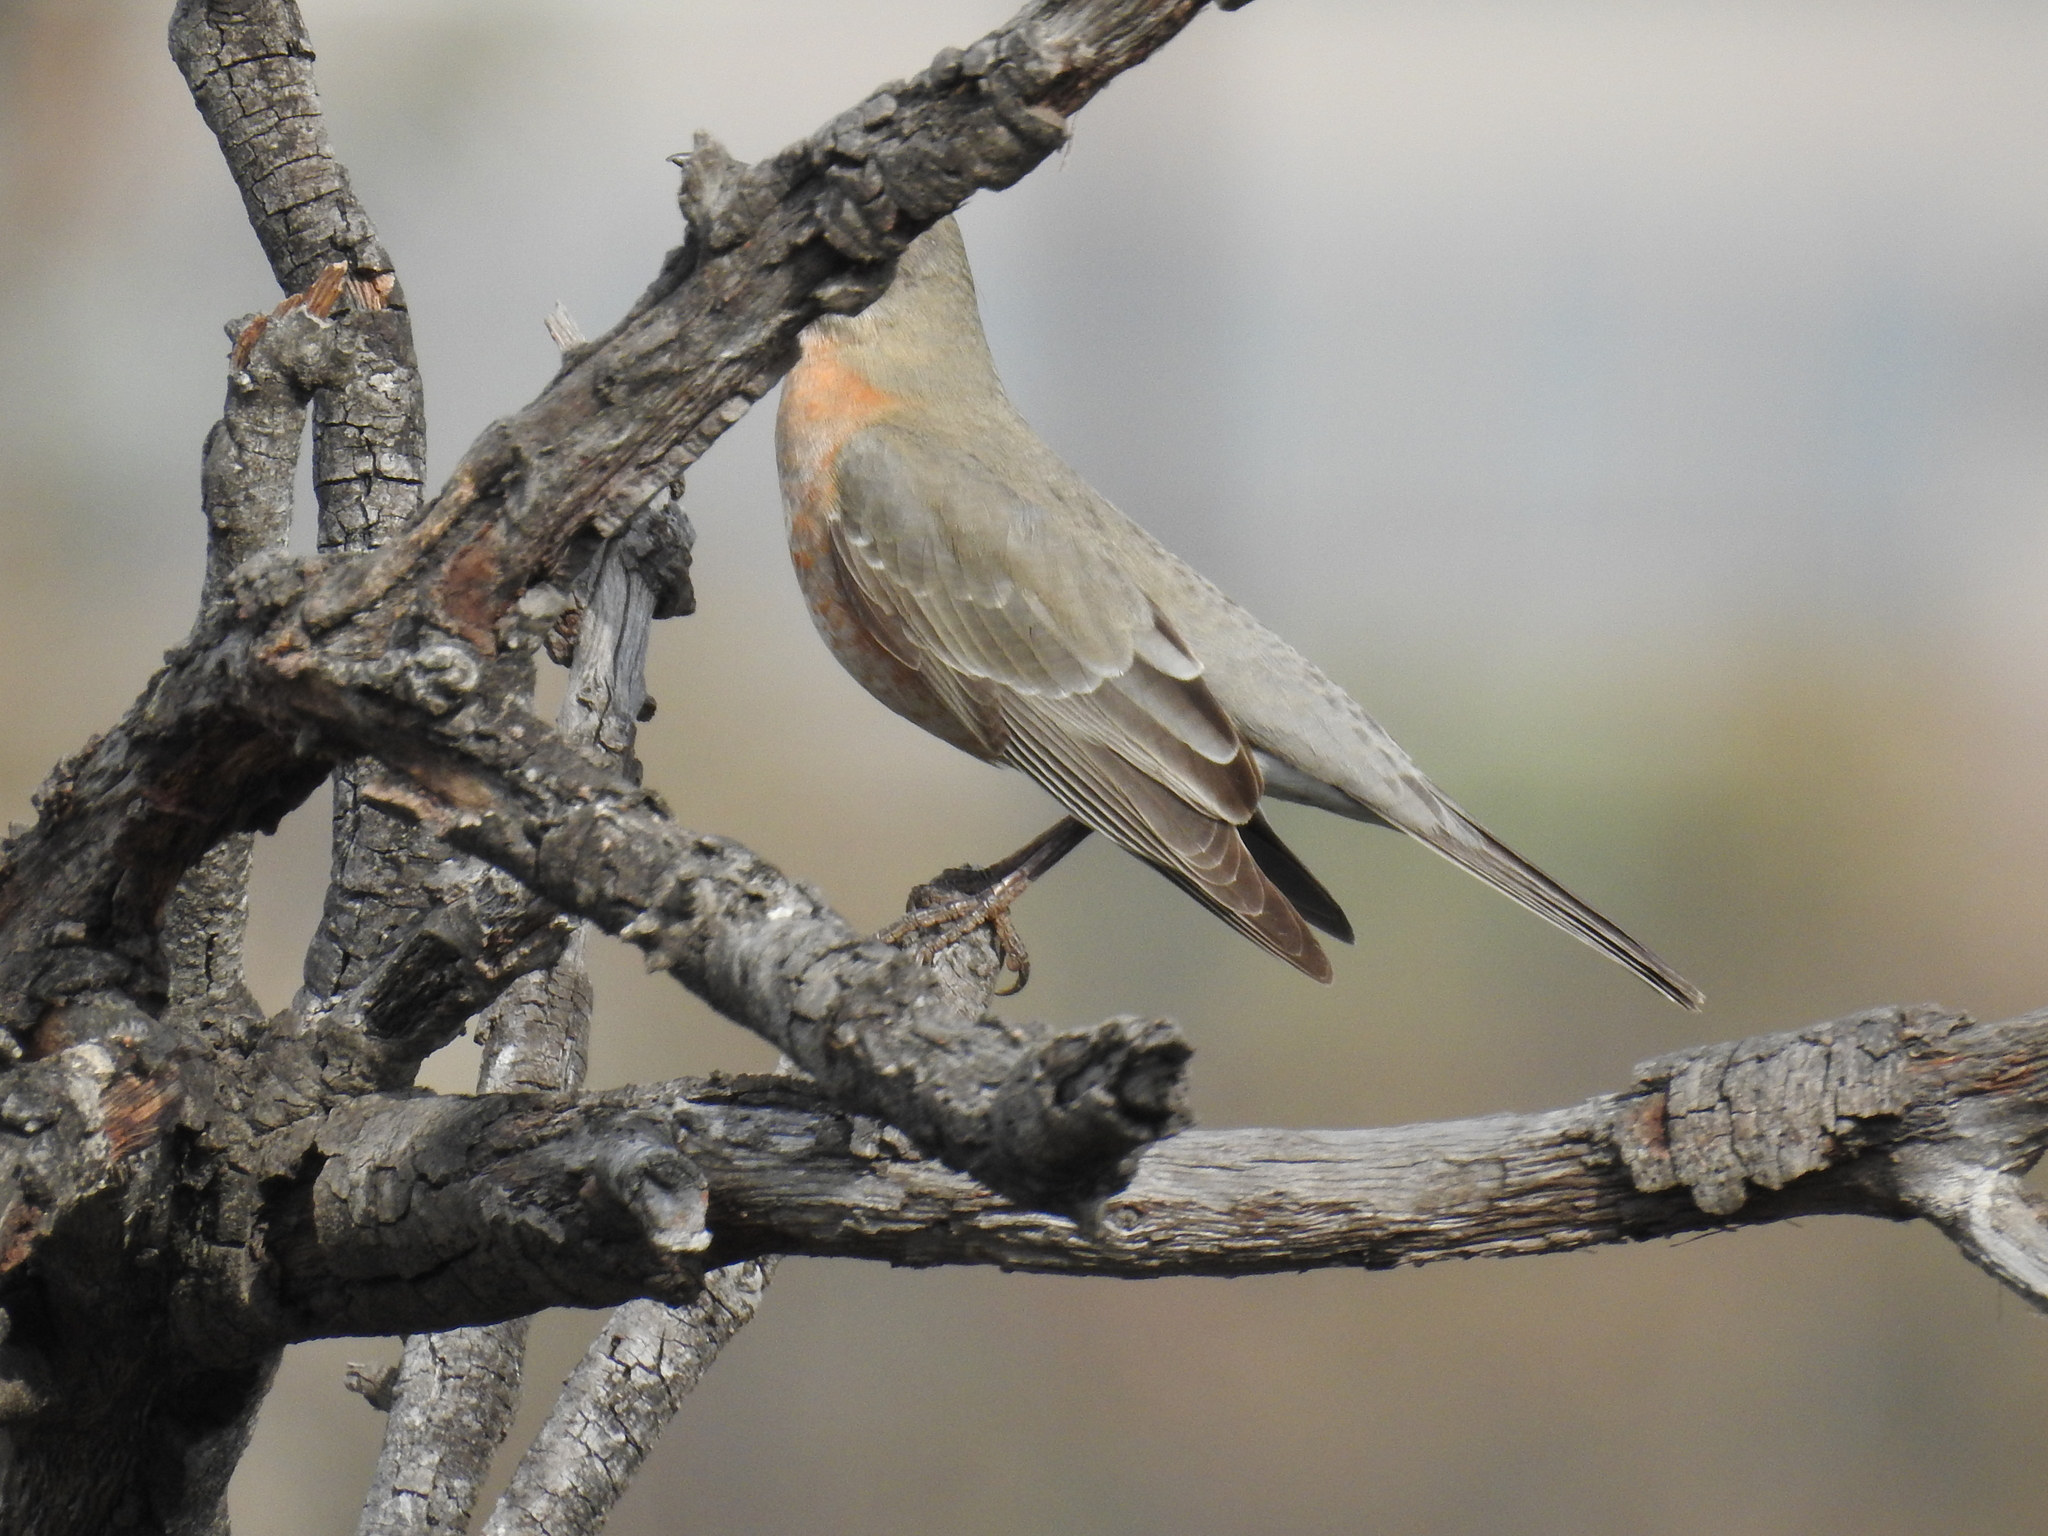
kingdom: Animalia
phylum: Chordata
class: Aves
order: Passeriformes
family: Turdidae
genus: Turdus
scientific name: Turdus migratorius
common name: American robin
